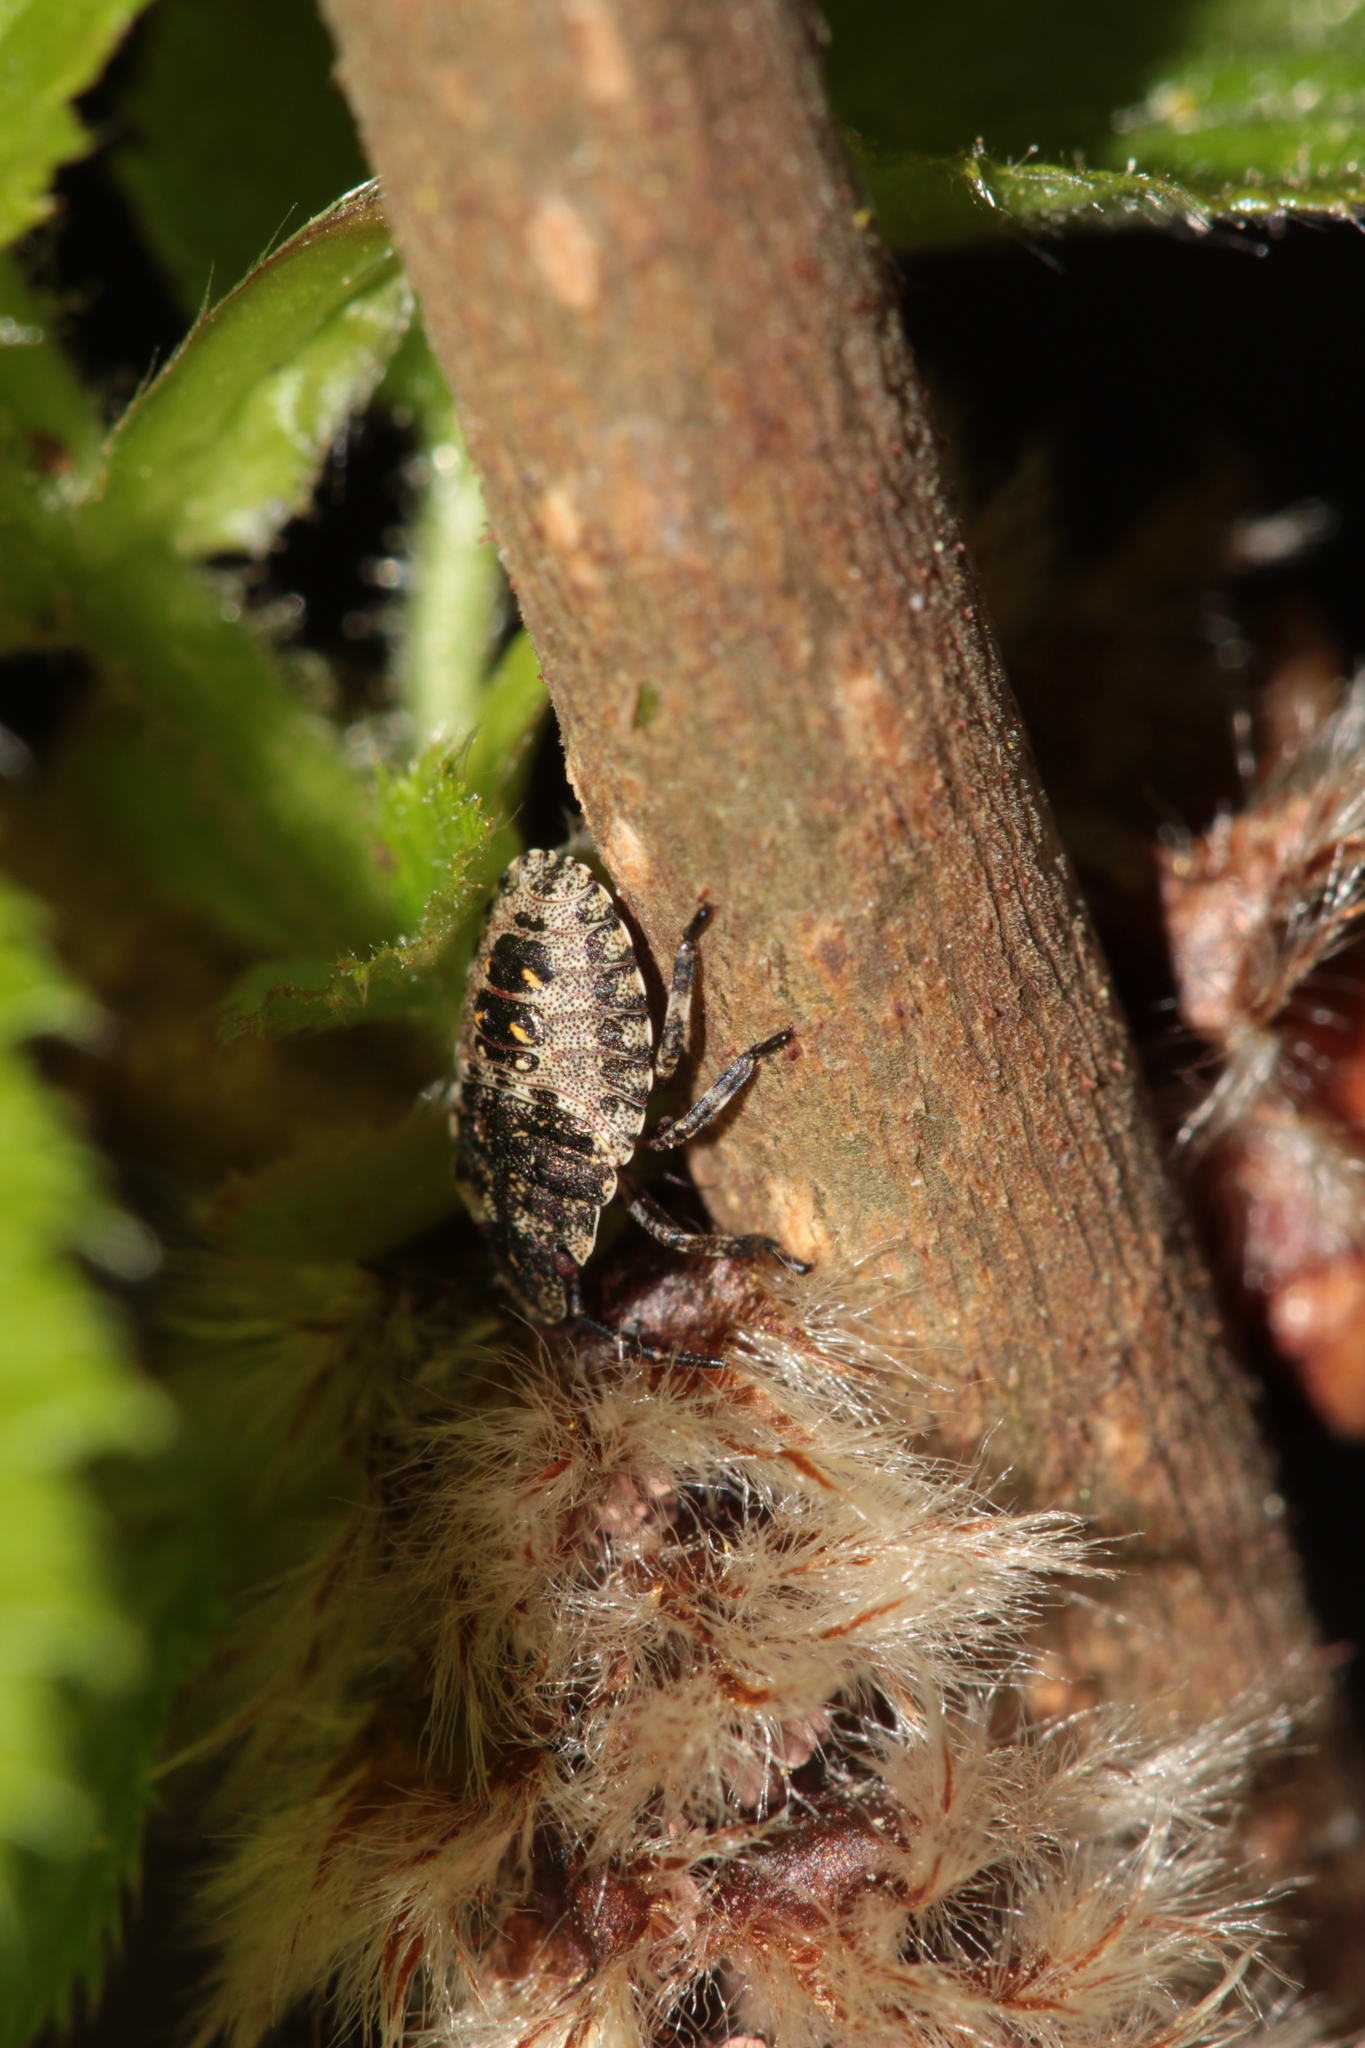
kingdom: Animalia
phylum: Arthropoda
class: Insecta
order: Hemiptera
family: Pentatomidae
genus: Pentatoma
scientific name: Pentatoma rufipes
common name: Forest bug
